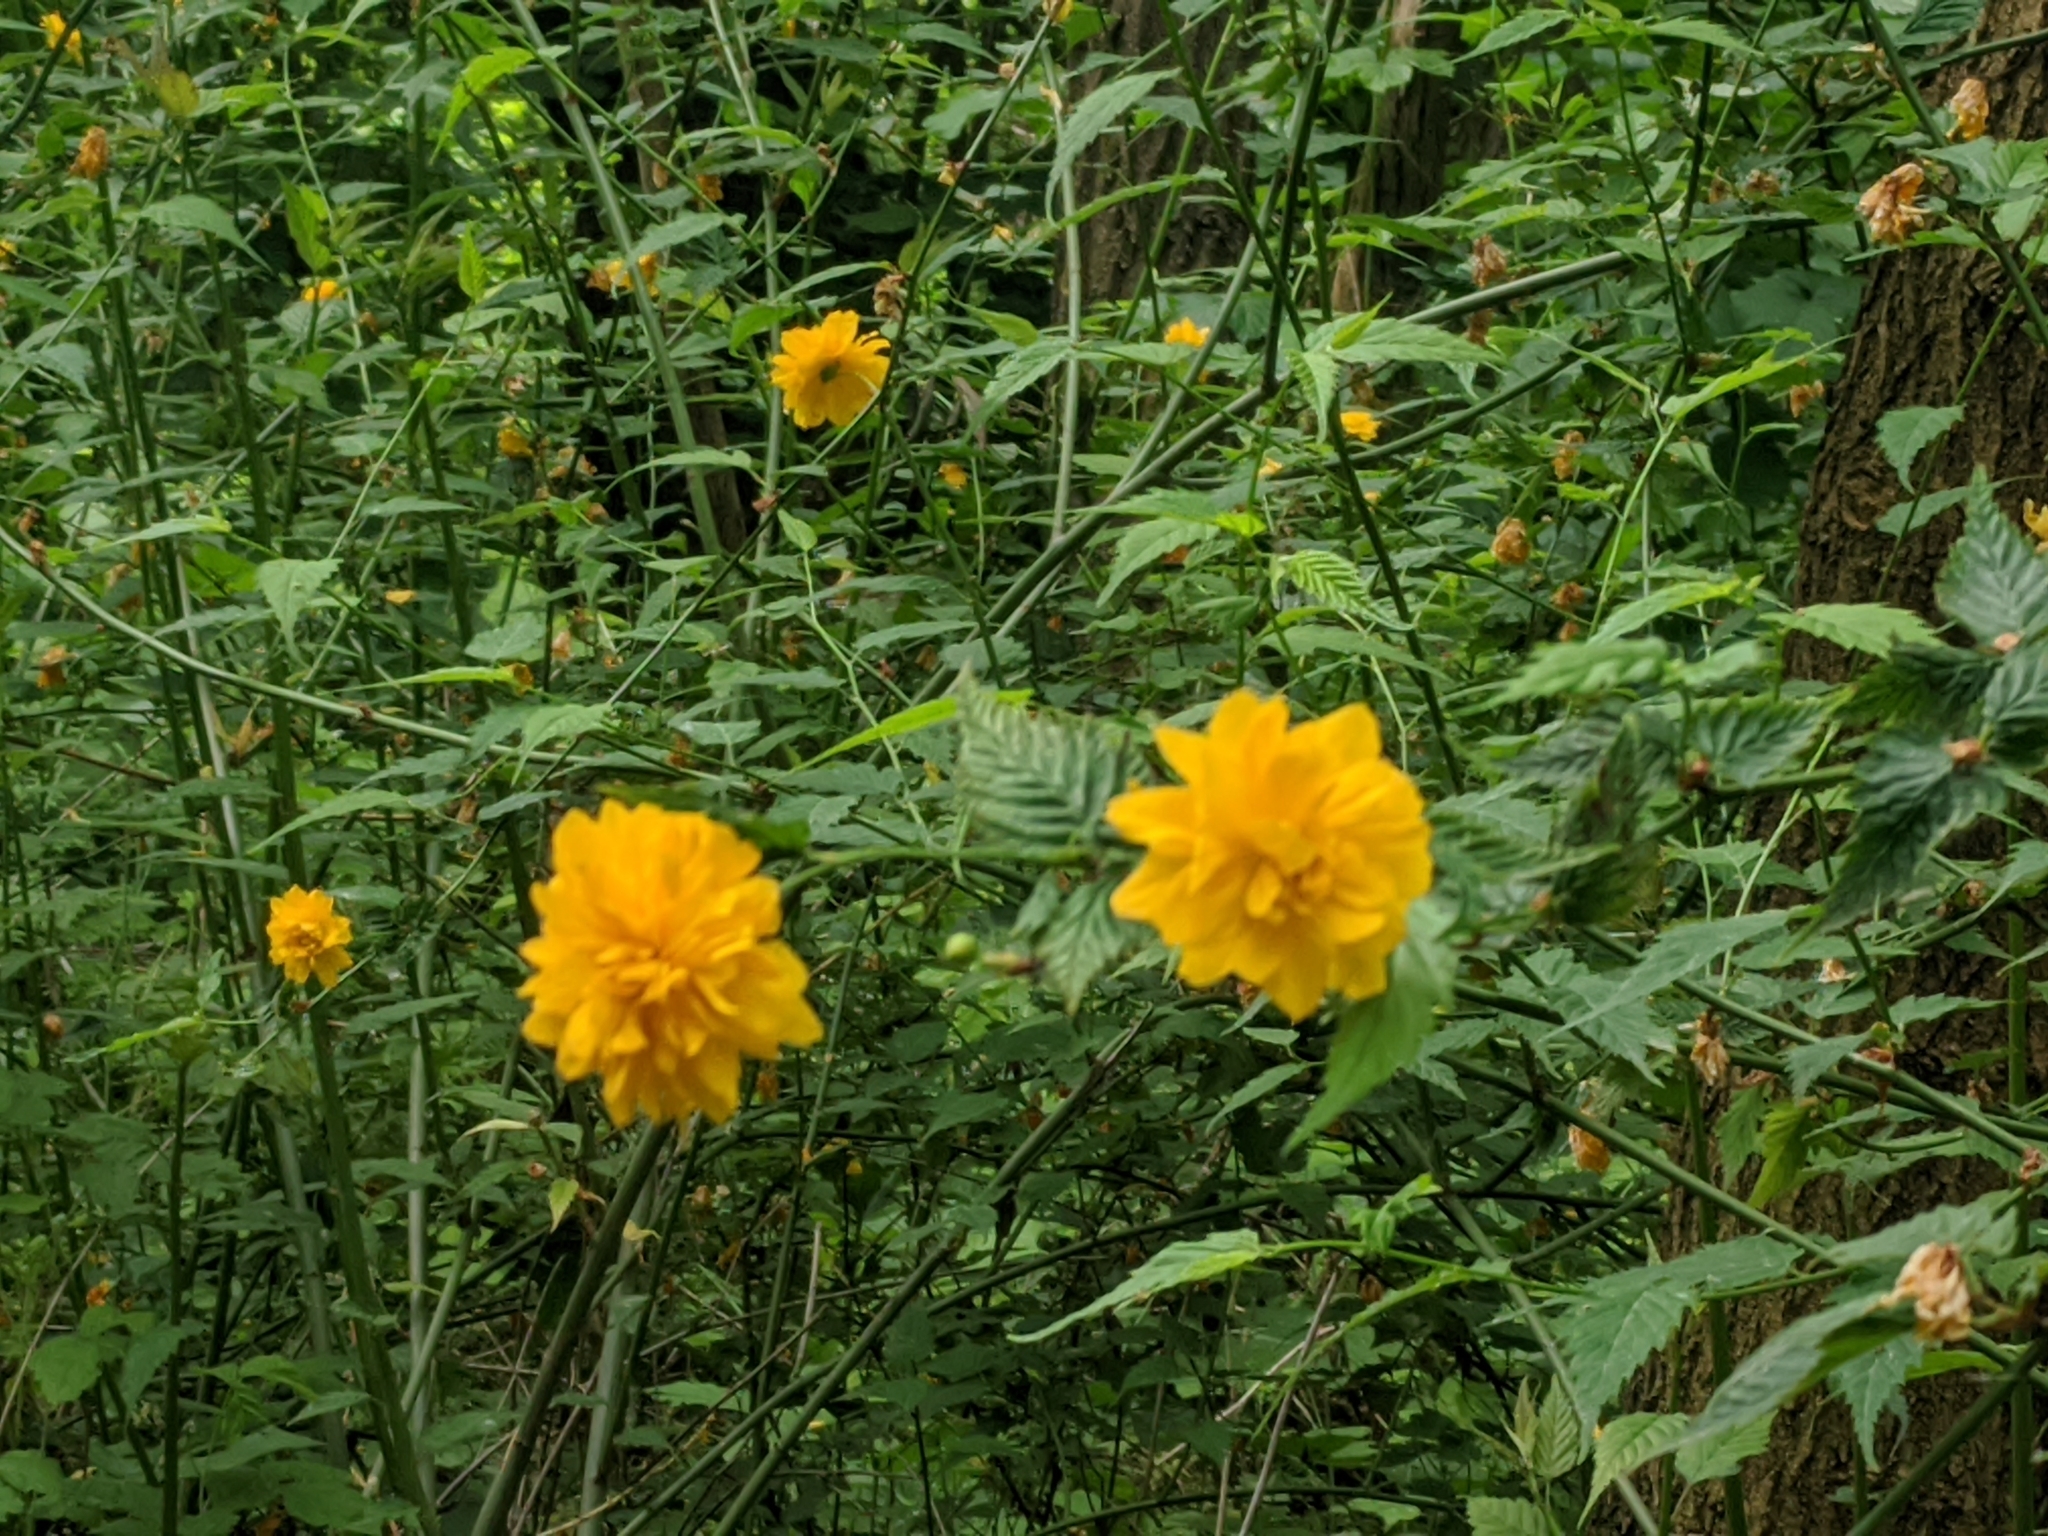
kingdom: Plantae
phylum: Tracheophyta
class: Magnoliopsida
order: Rosales
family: Rosaceae
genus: Kerria
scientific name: Kerria japonica
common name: Japanese kerria
